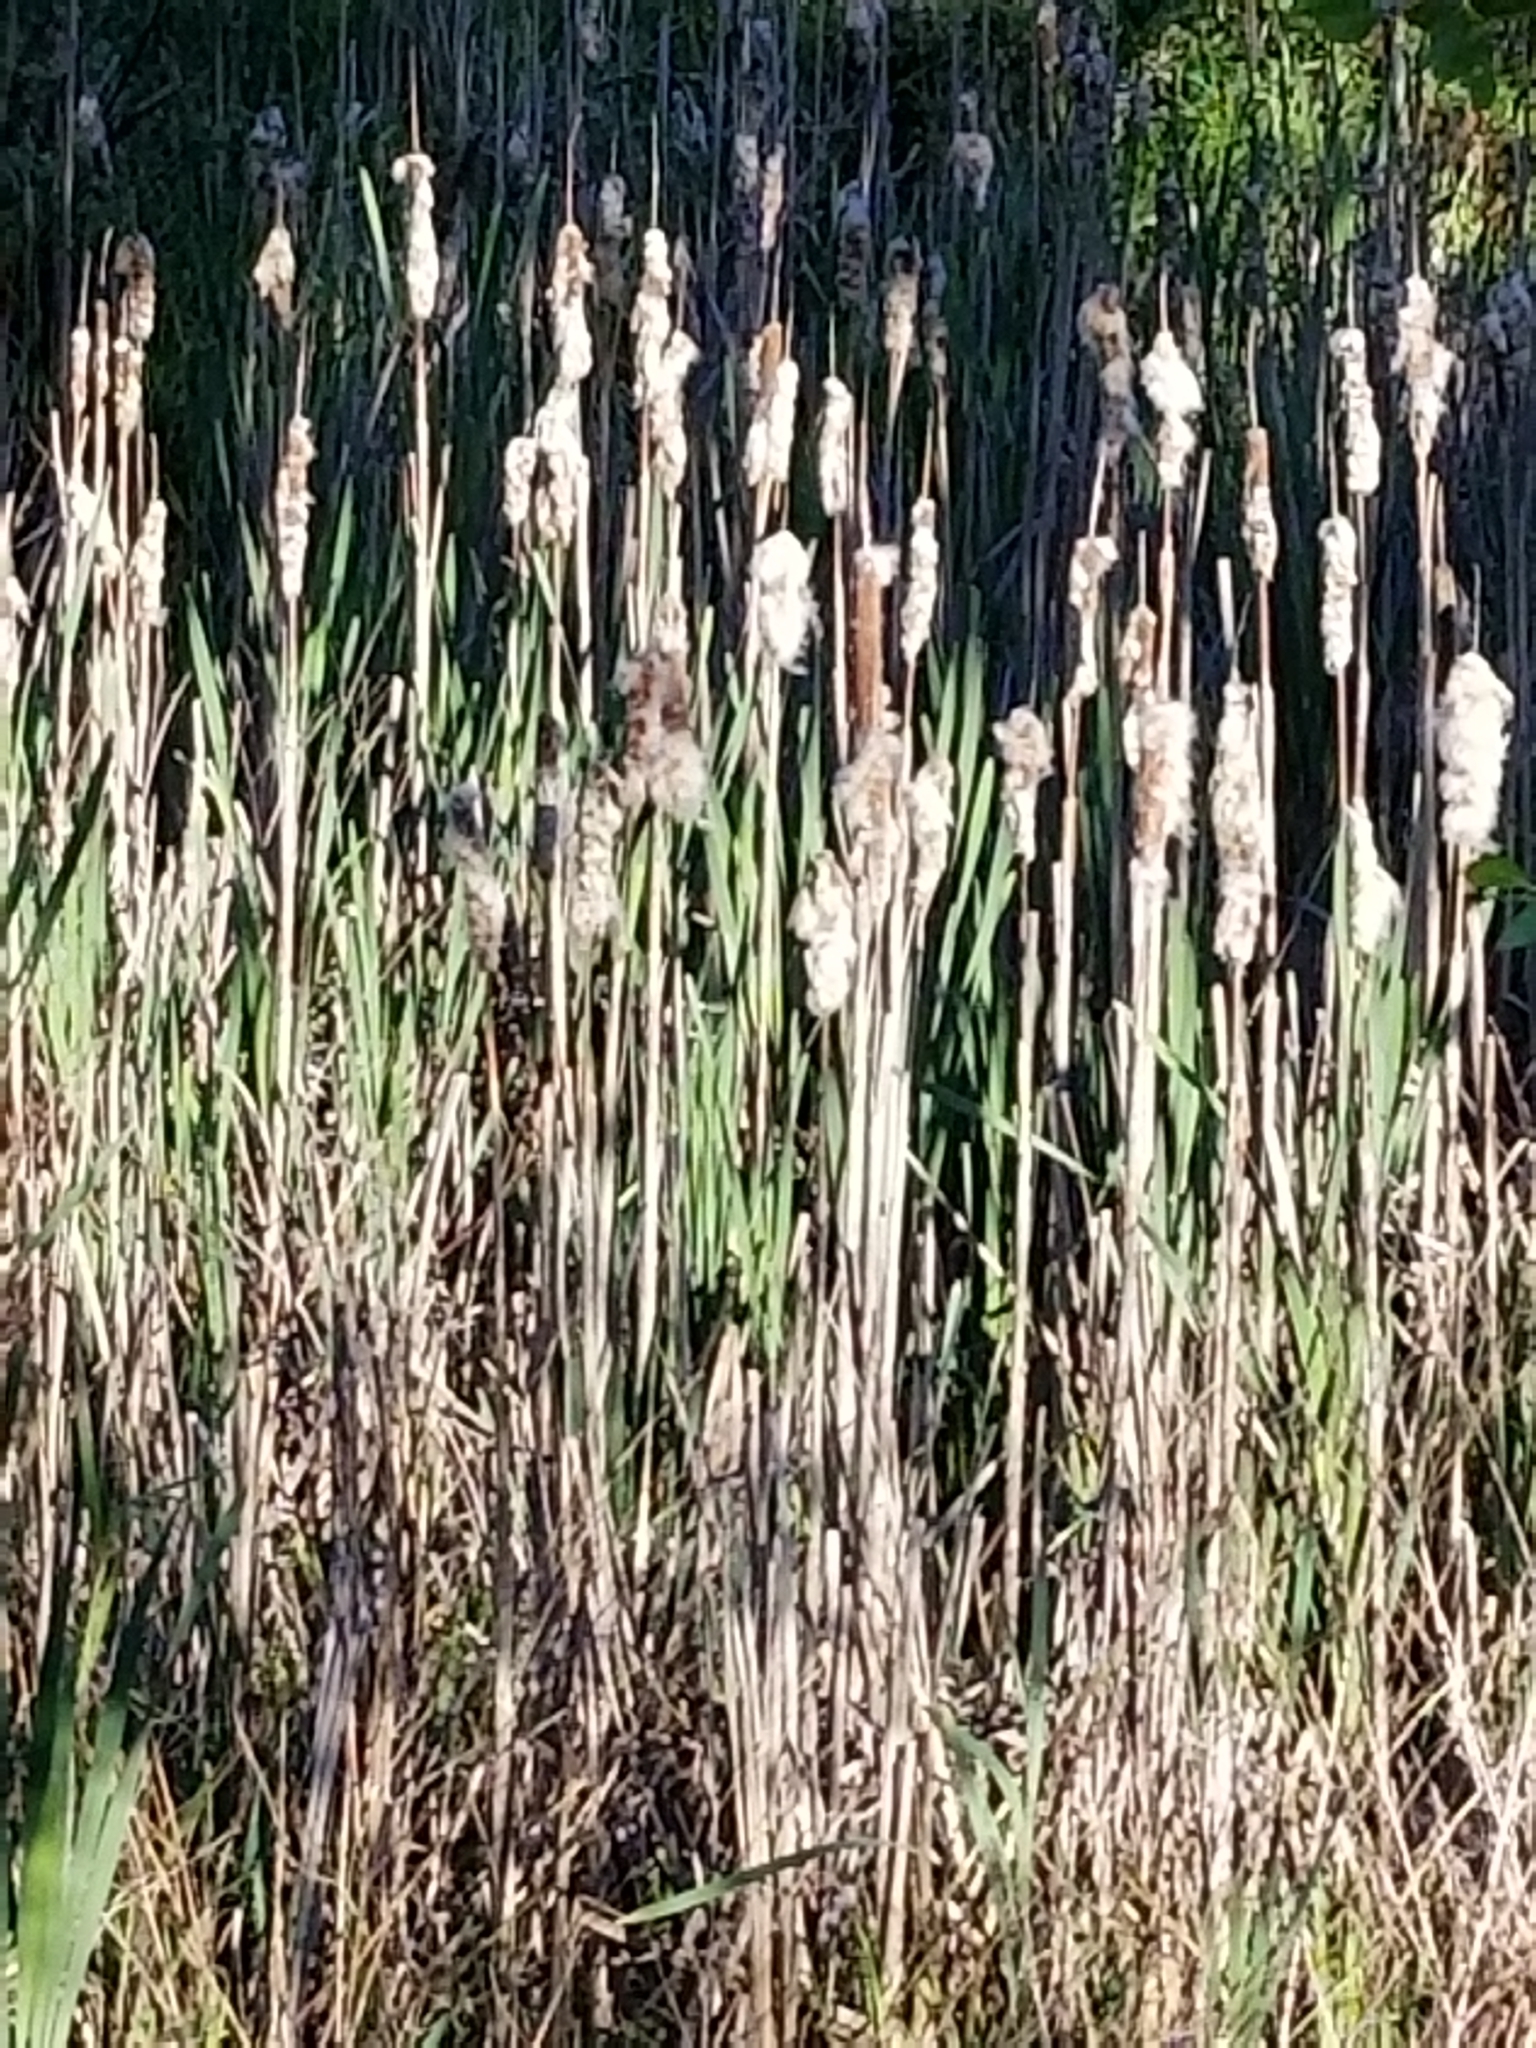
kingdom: Plantae
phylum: Tracheophyta
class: Liliopsida
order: Poales
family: Typhaceae
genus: Typha
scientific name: Typha latifolia
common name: Broadleaf cattail
